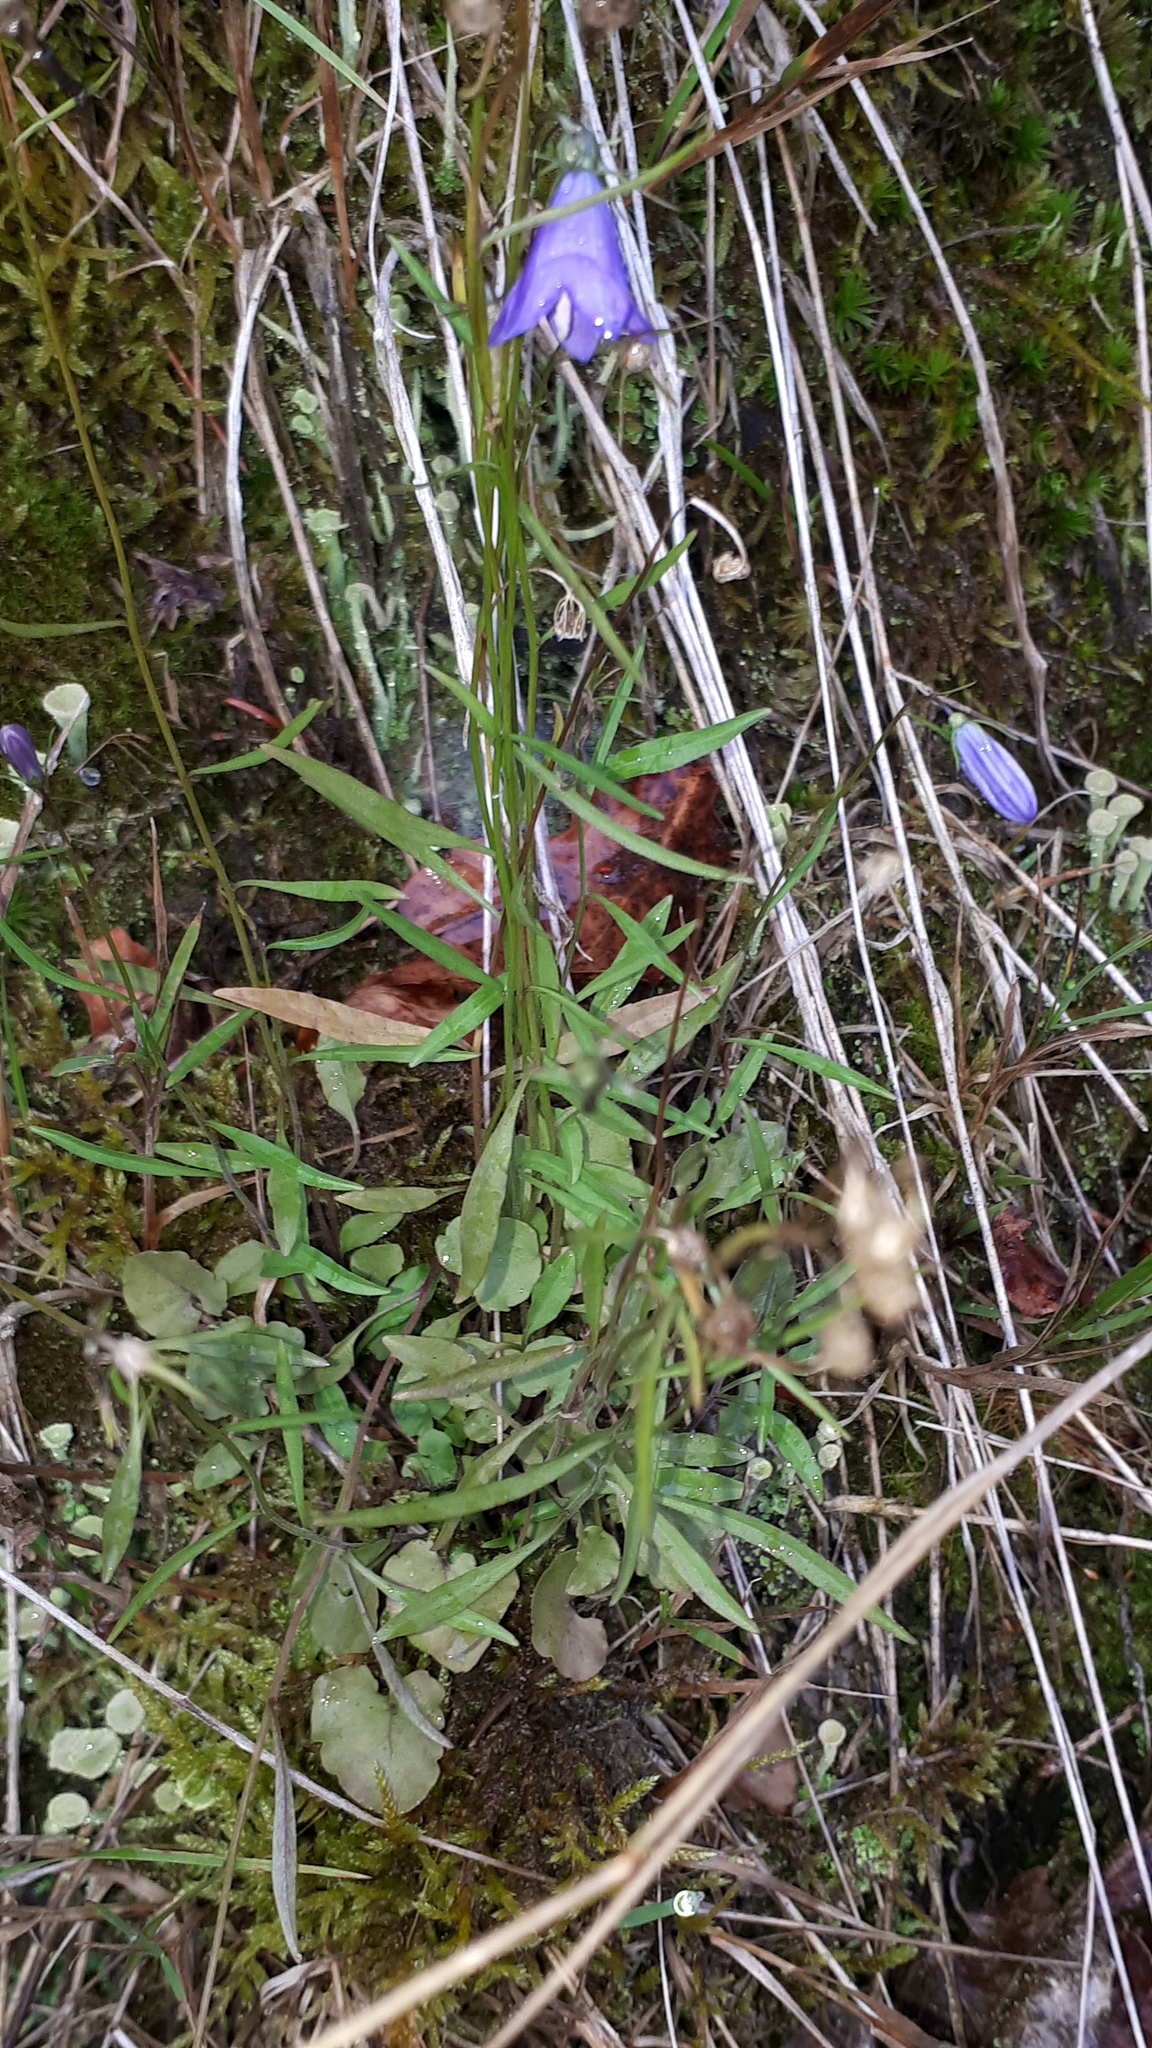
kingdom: Plantae
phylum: Tracheophyta
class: Magnoliopsida
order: Asterales
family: Campanulaceae
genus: Campanula
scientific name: Campanula persicifolia
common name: Peach-leaved bellflower
